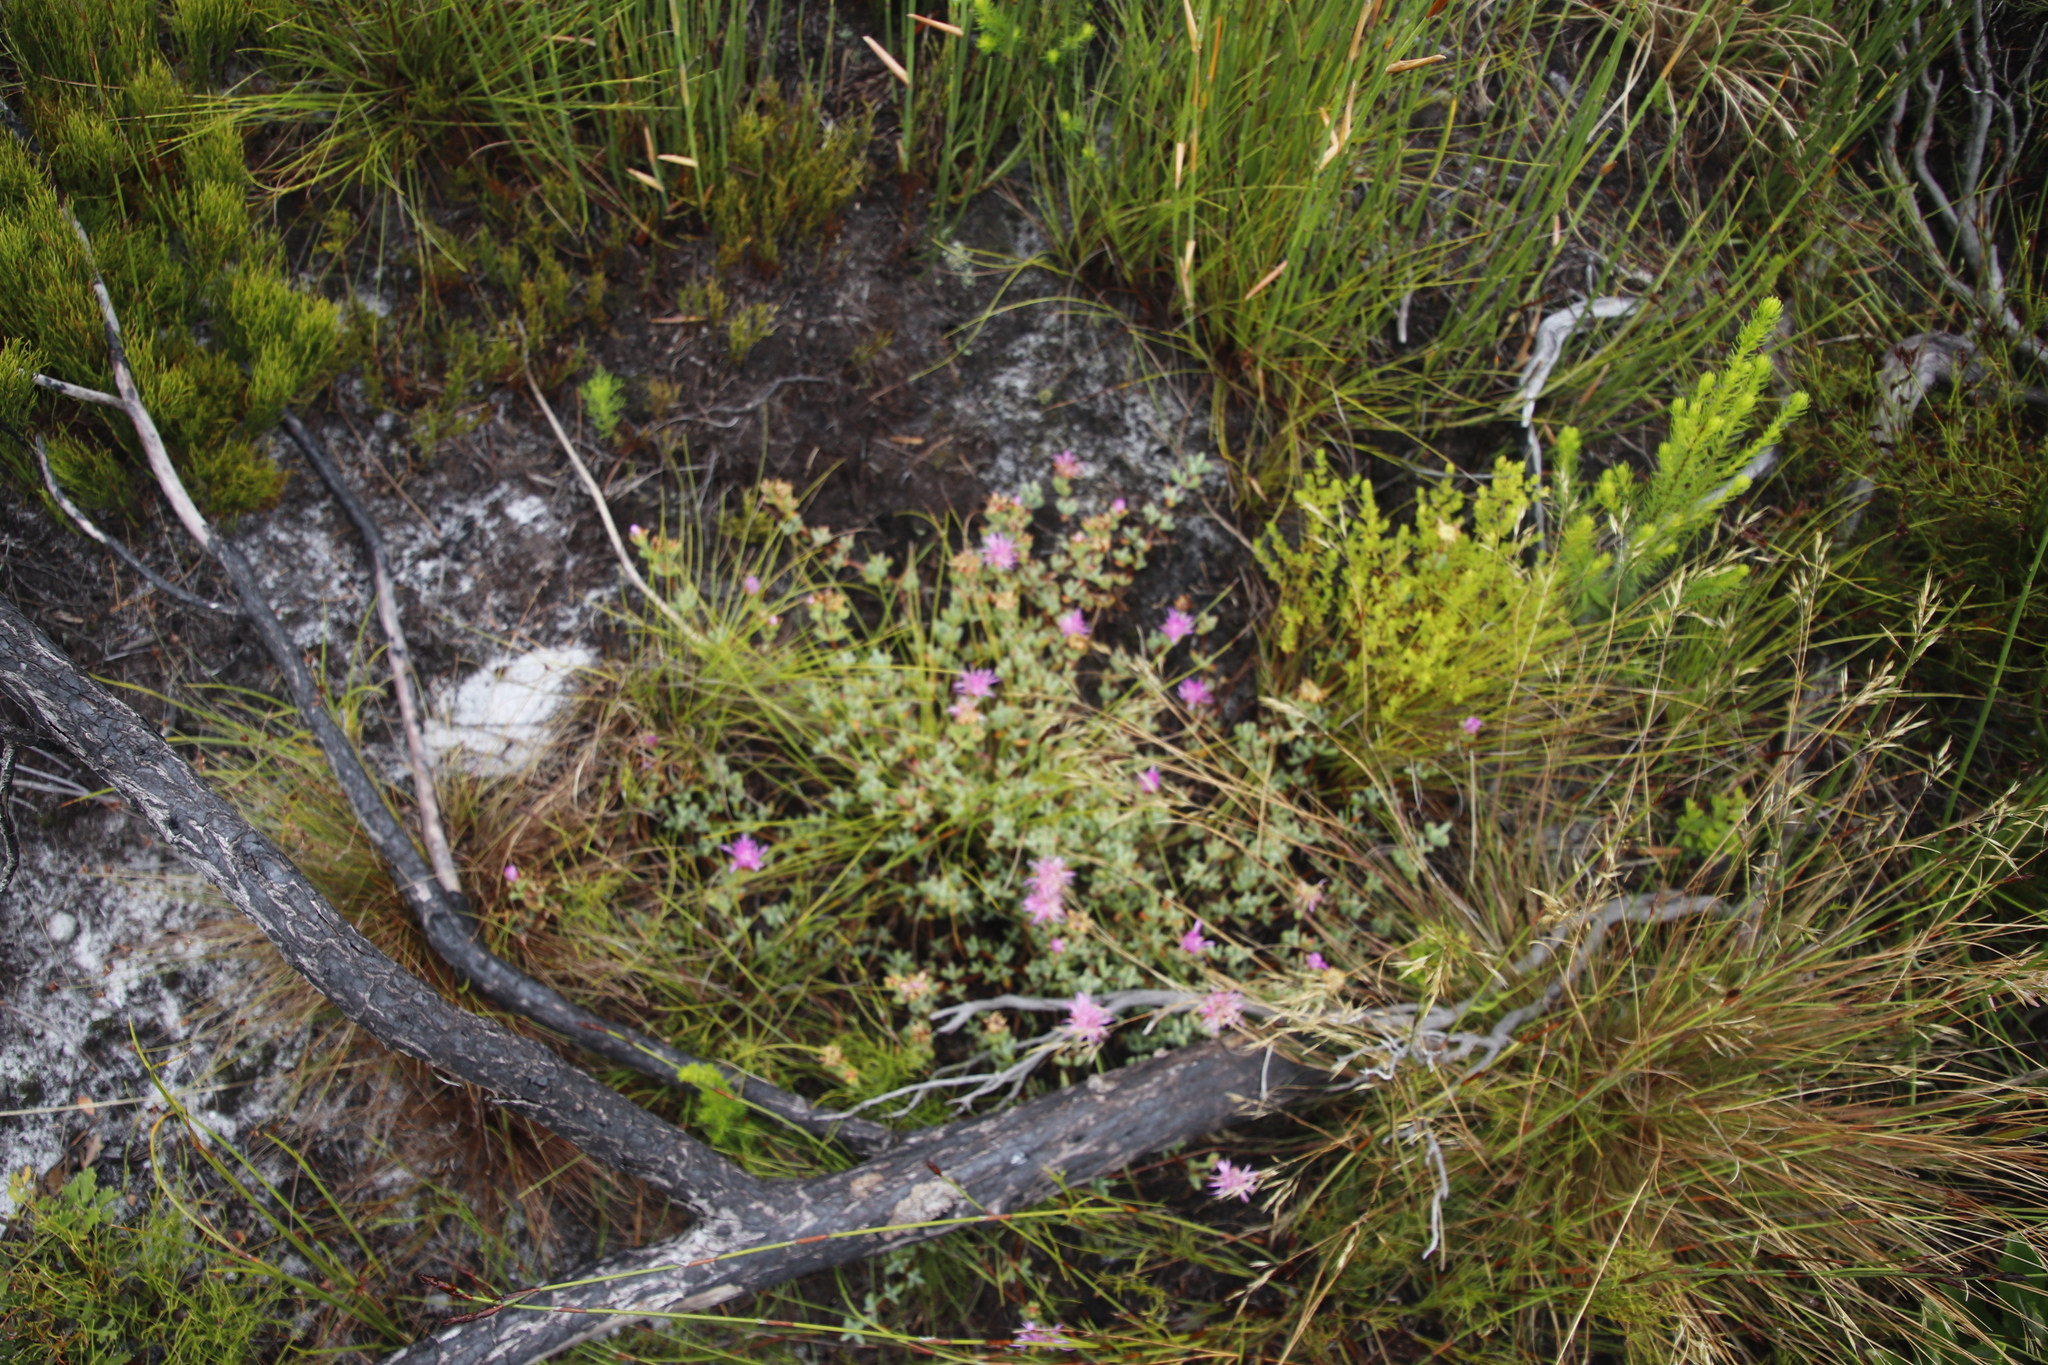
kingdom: Plantae
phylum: Tracheophyta
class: Magnoliopsida
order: Caryophyllales
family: Aizoaceae
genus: Oscularia
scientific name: Oscularia falciformis
